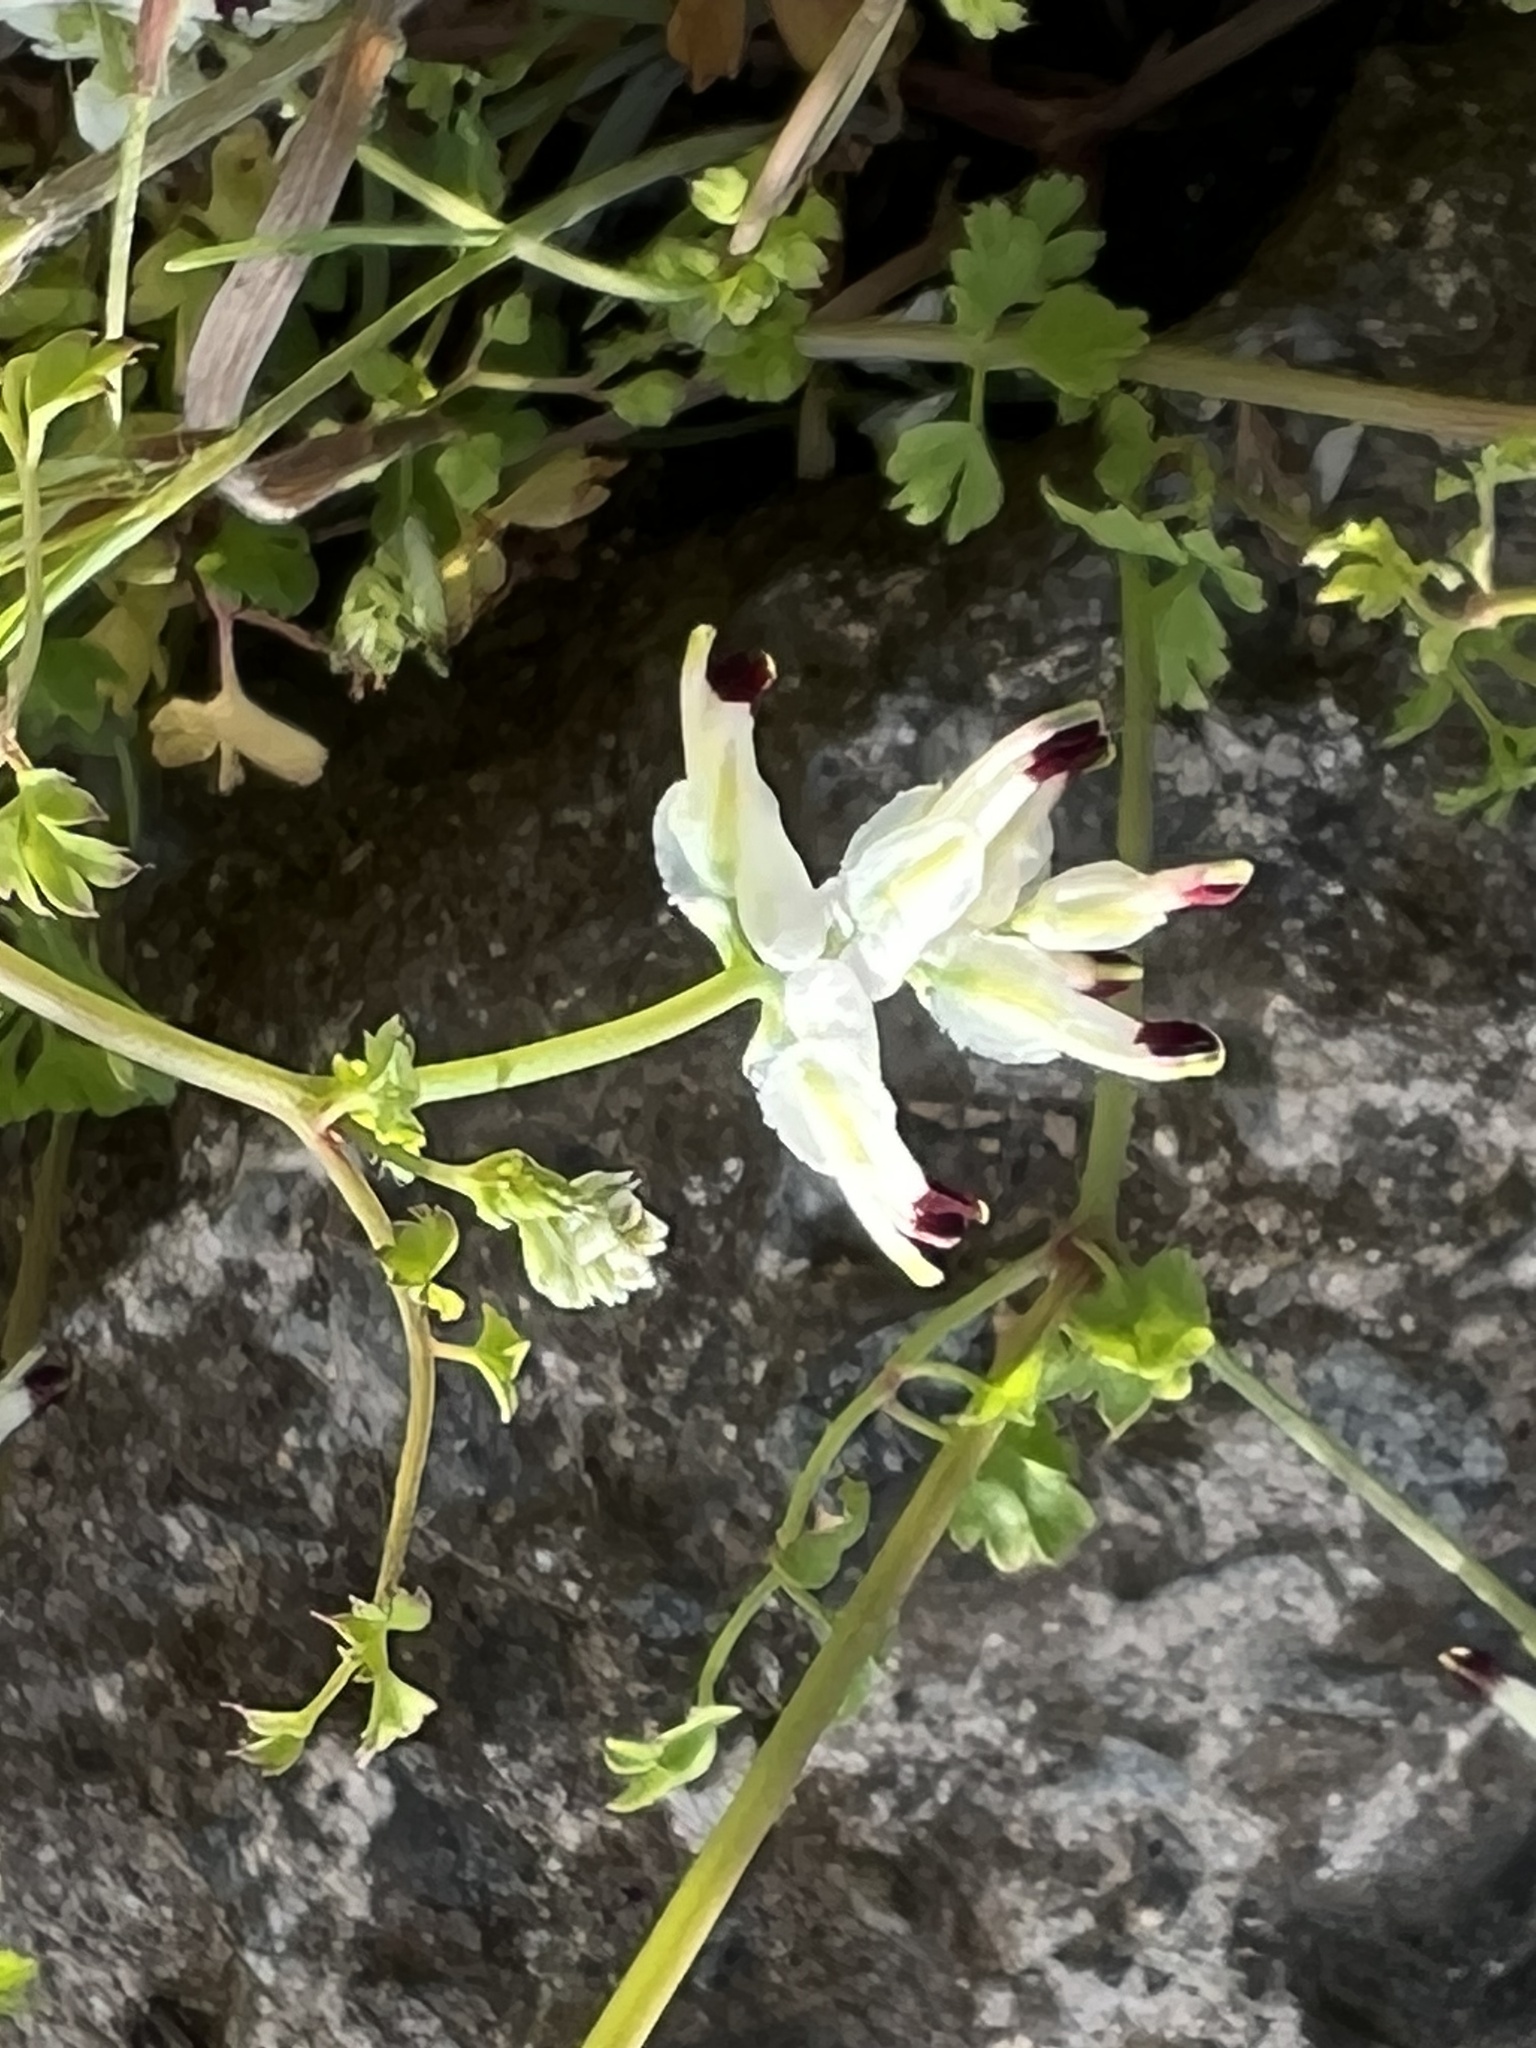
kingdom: Plantae
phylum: Tracheophyta
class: Magnoliopsida
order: Ranunculales
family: Papaveraceae
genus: Fumaria
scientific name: Fumaria capreolata
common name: White ramping-fumitory
